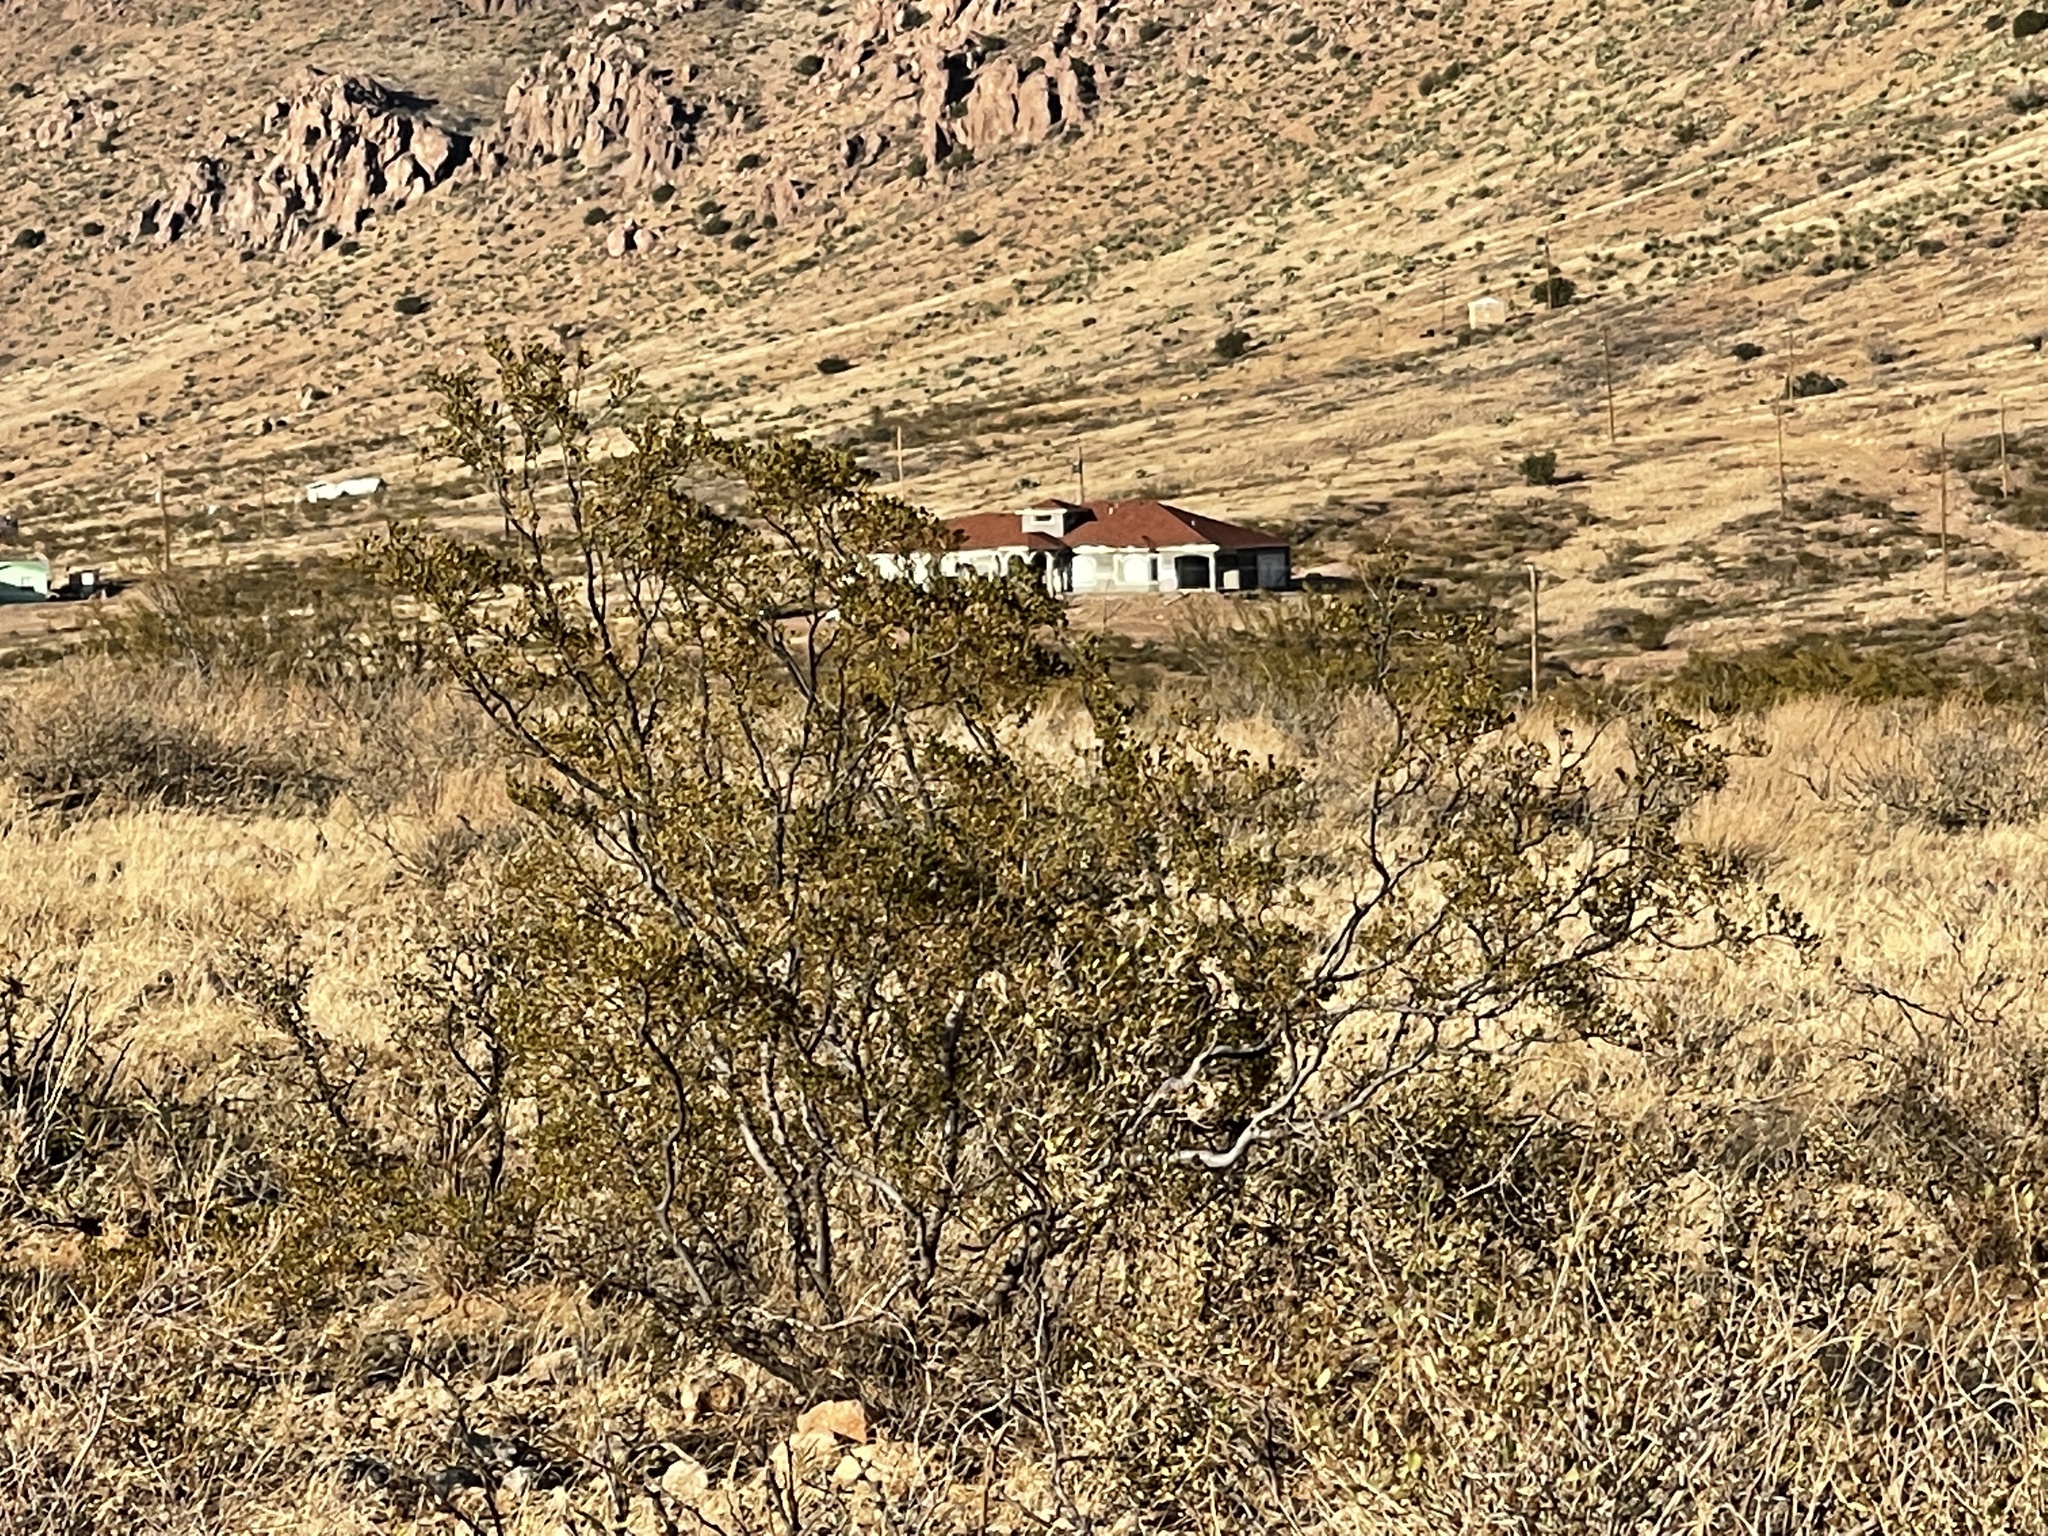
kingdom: Plantae
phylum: Tracheophyta
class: Magnoliopsida
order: Zygophyllales
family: Zygophyllaceae
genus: Larrea
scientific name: Larrea tridentata
